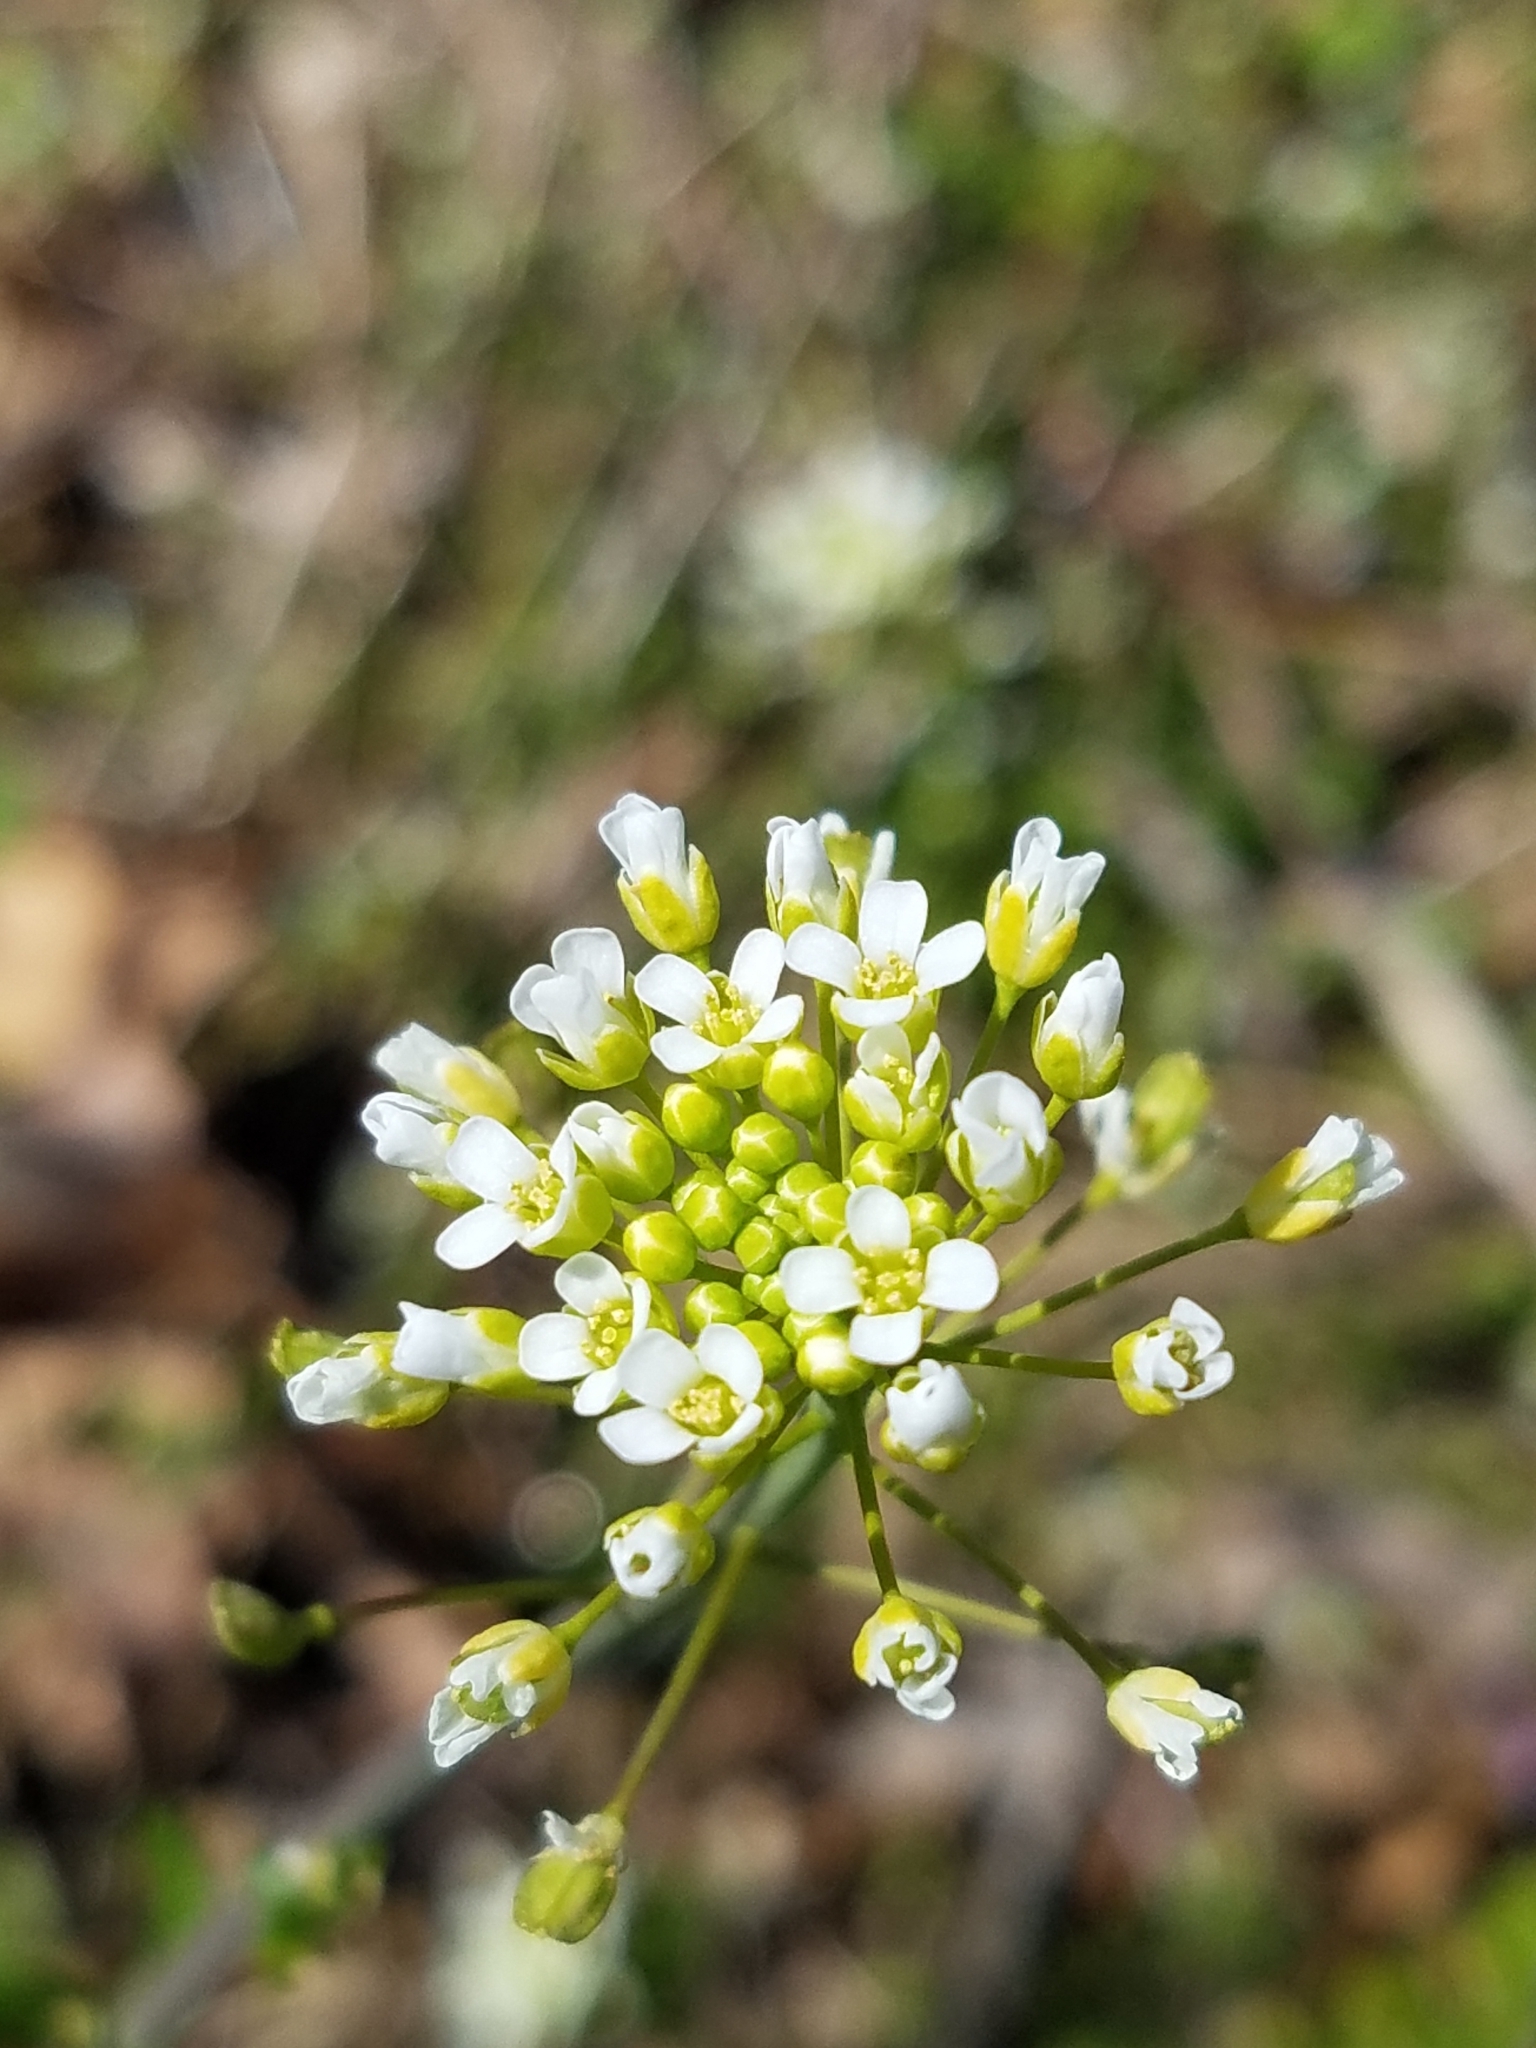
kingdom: Plantae
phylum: Tracheophyta
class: Magnoliopsida
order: Brassicales
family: Brassicaceae
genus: Mummenhoffia
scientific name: Mummenhoffia alliacea
